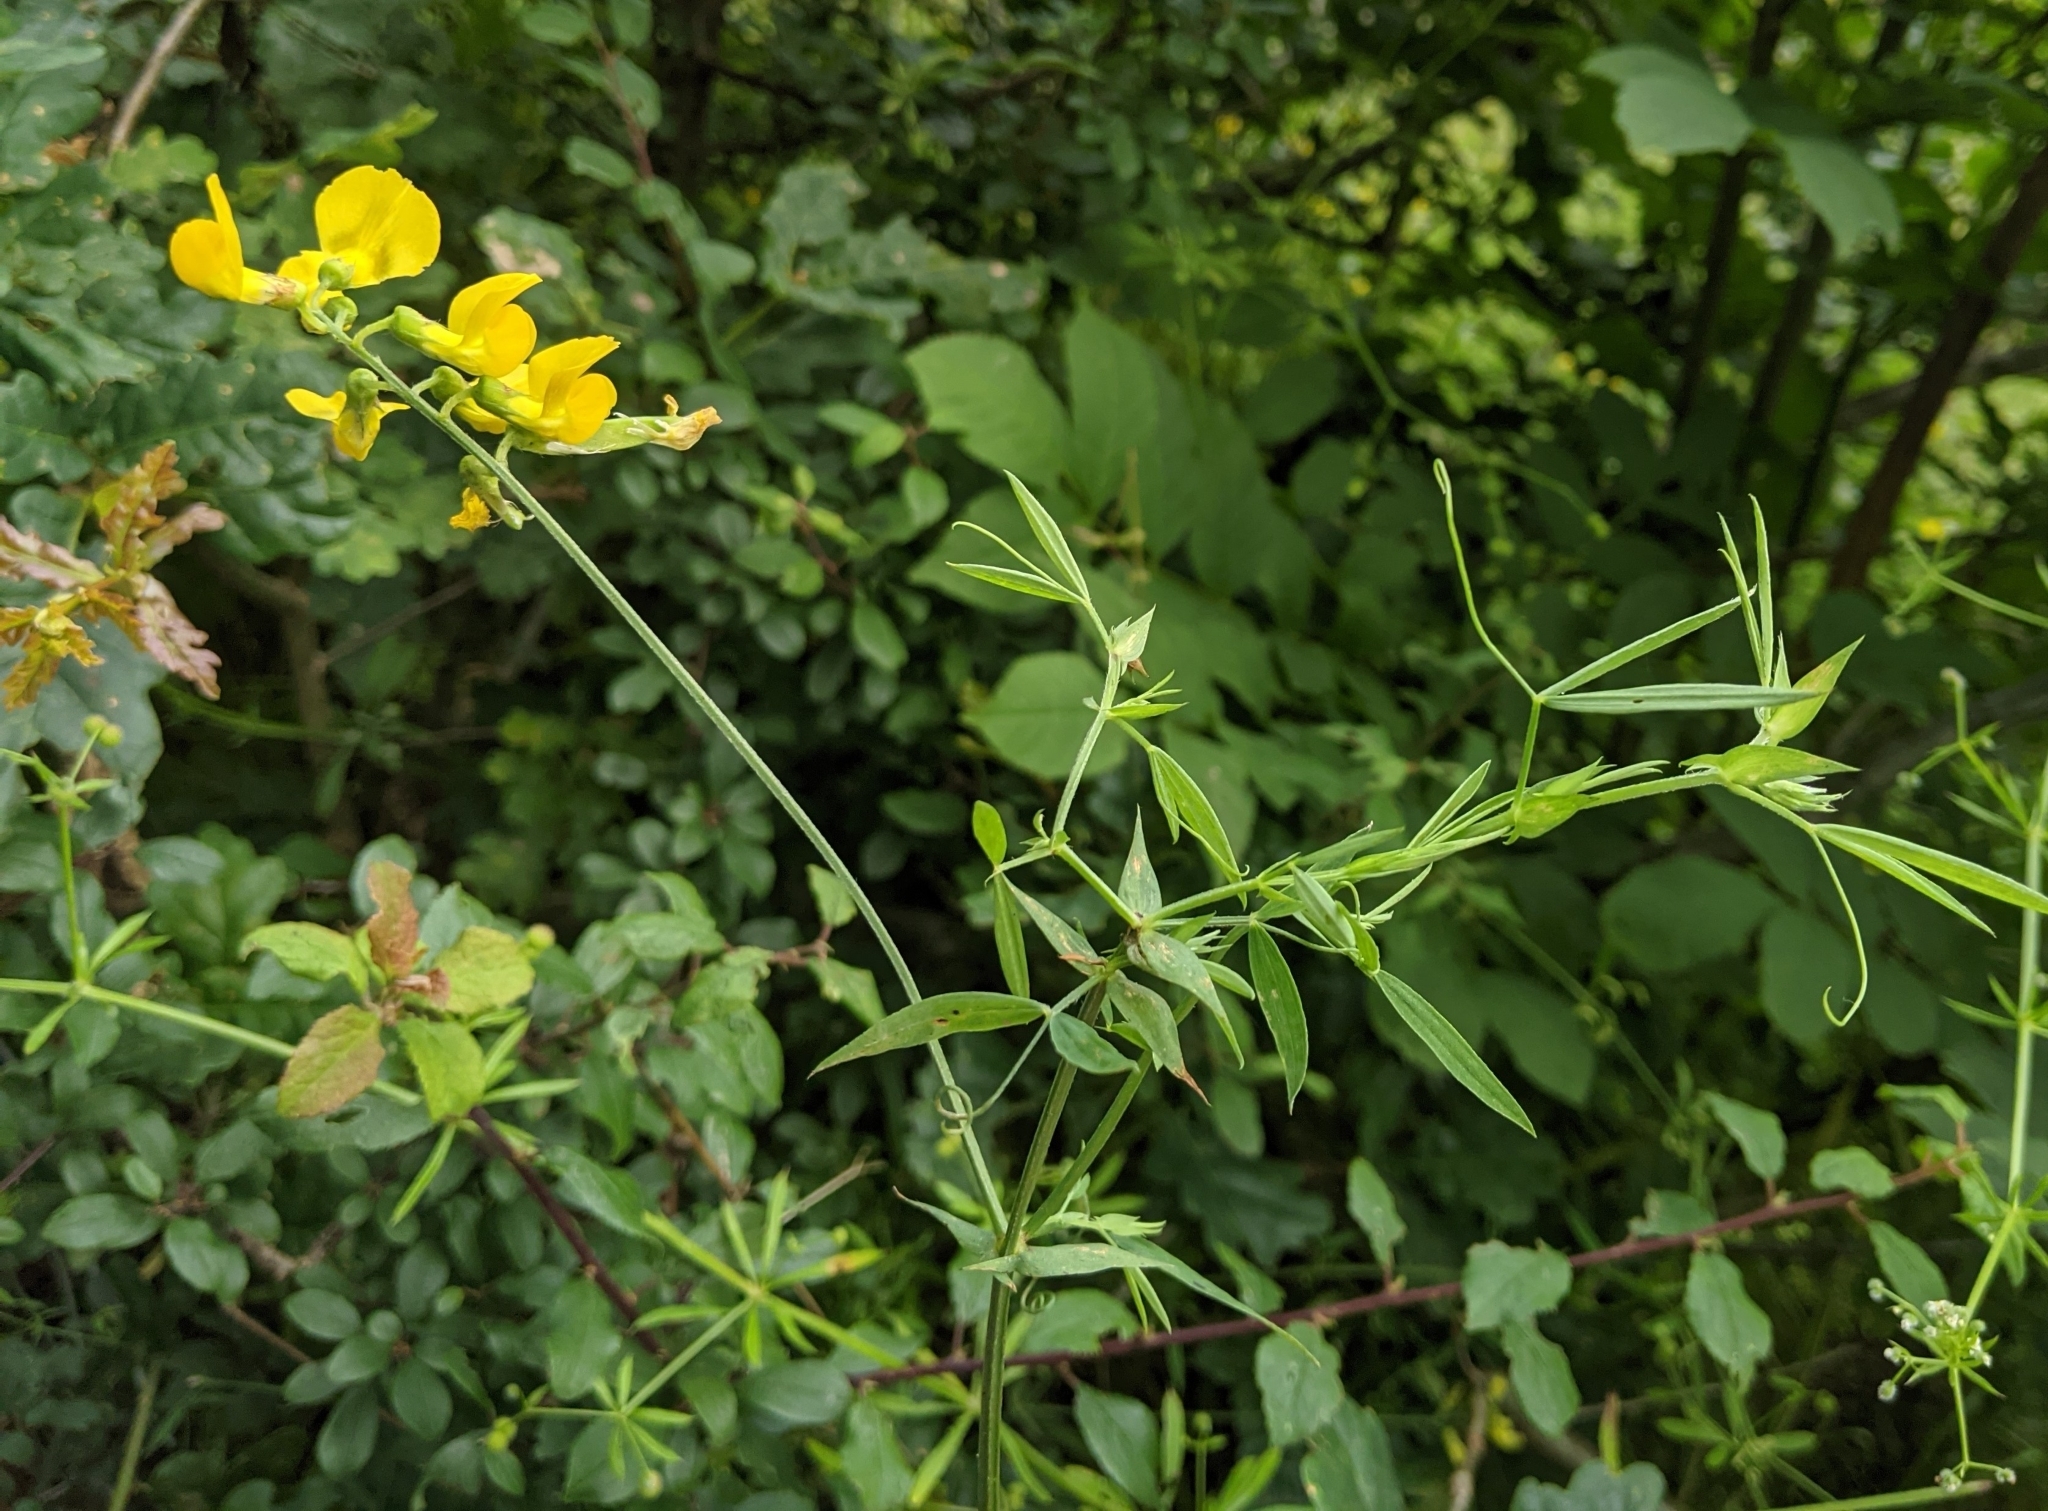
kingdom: Plantae
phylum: Tracheophyta
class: Magnoliopsida
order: Fabales
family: Fabaceae
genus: Lathyrus
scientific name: Lathyrus pratensis
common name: Meadow vetchling
